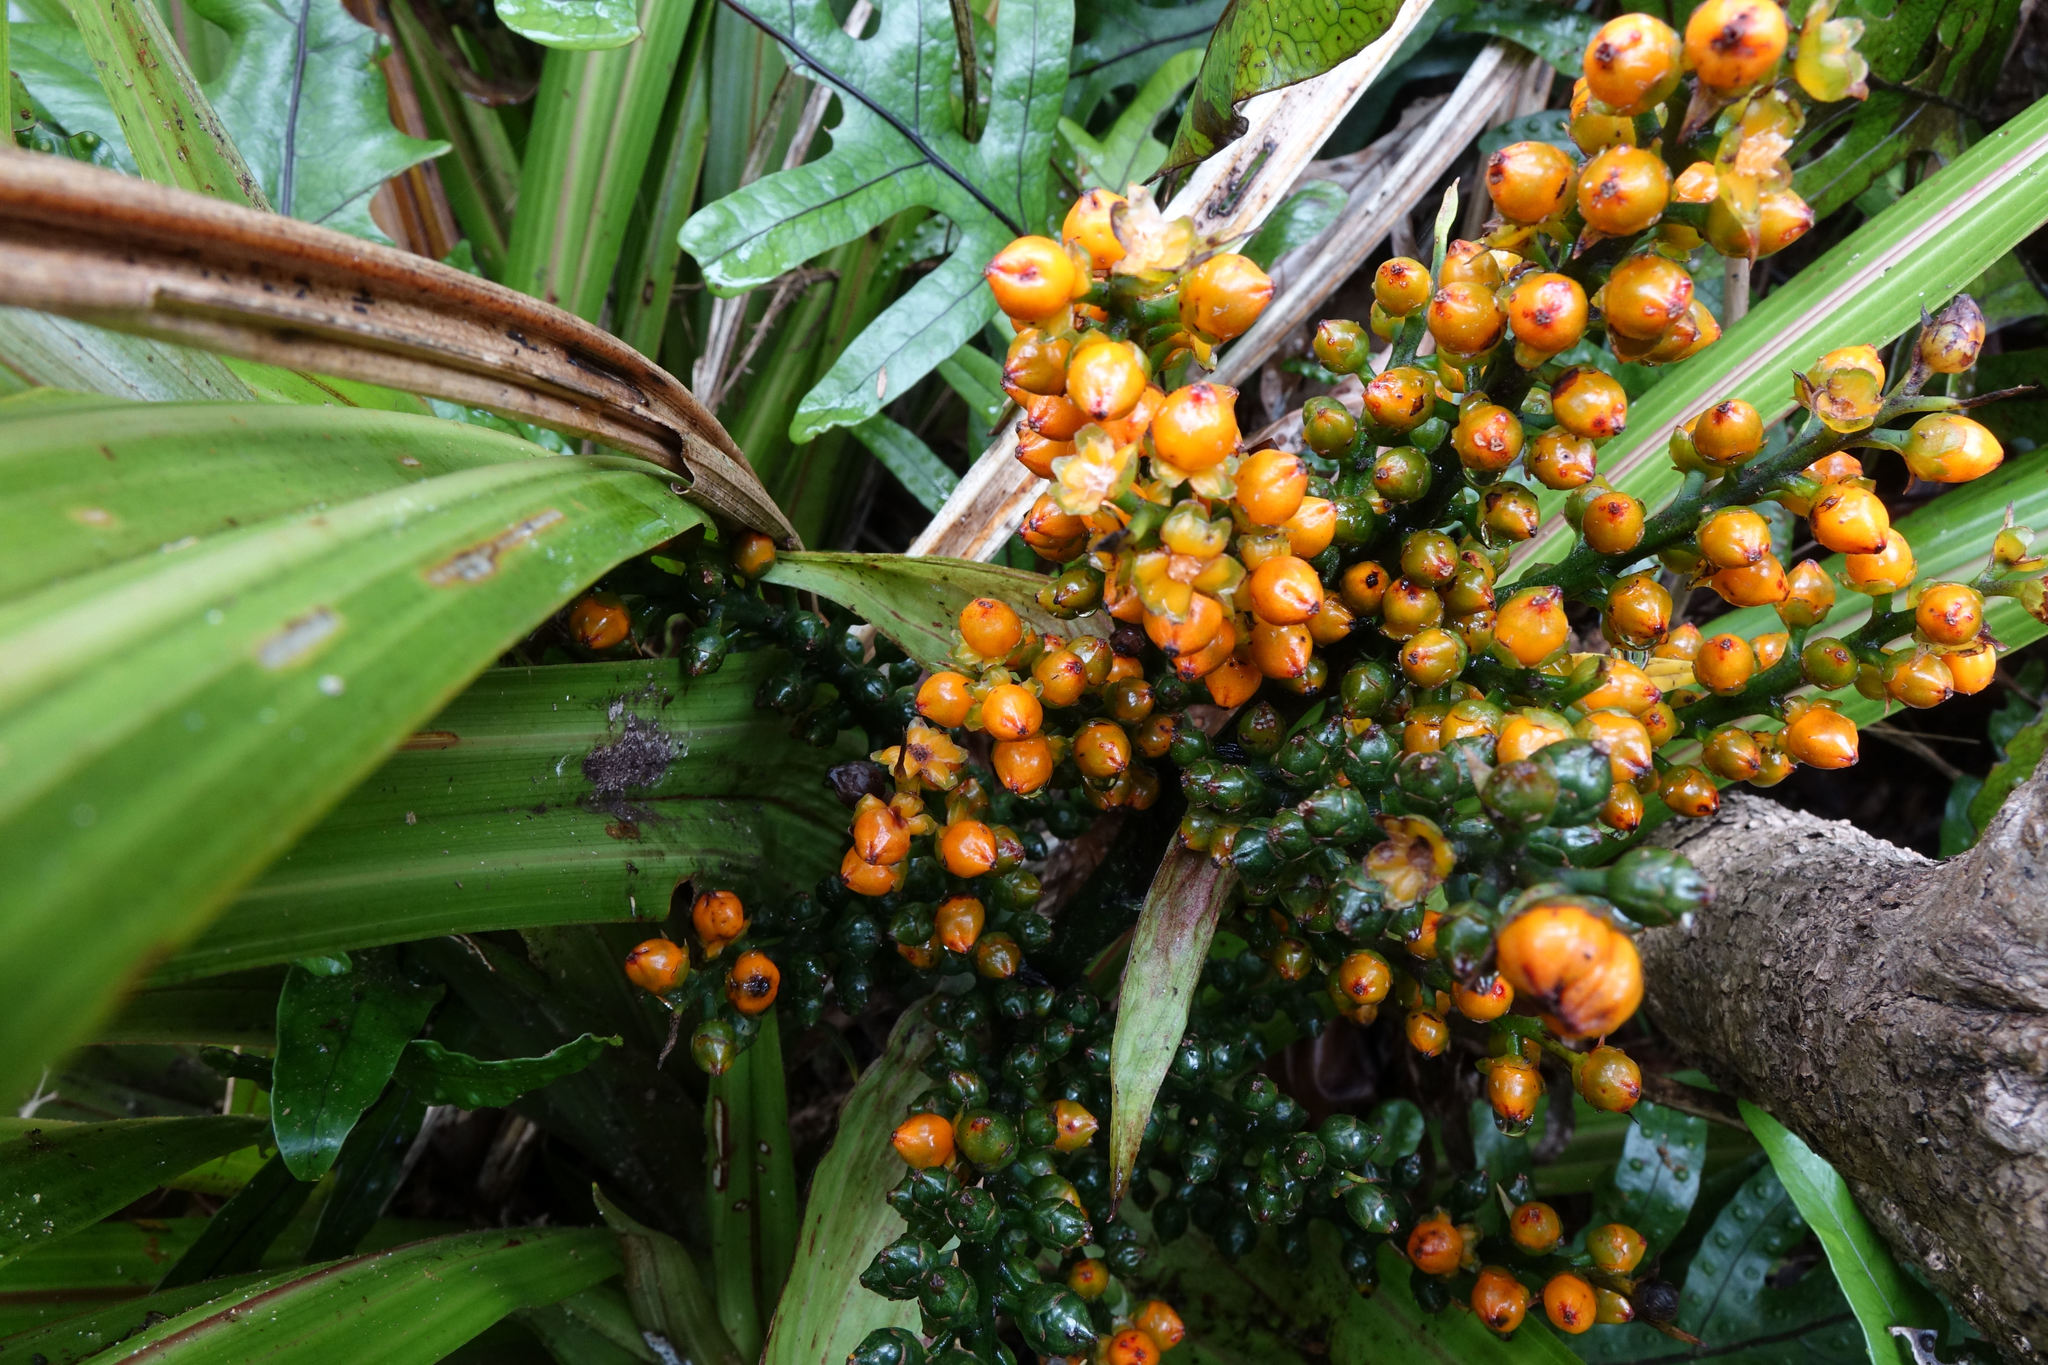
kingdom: Plantae
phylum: Tracheophyta
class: Liliopsida
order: Asparagales
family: Asteliaceae
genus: Astelia
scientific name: Astelia fragrans
